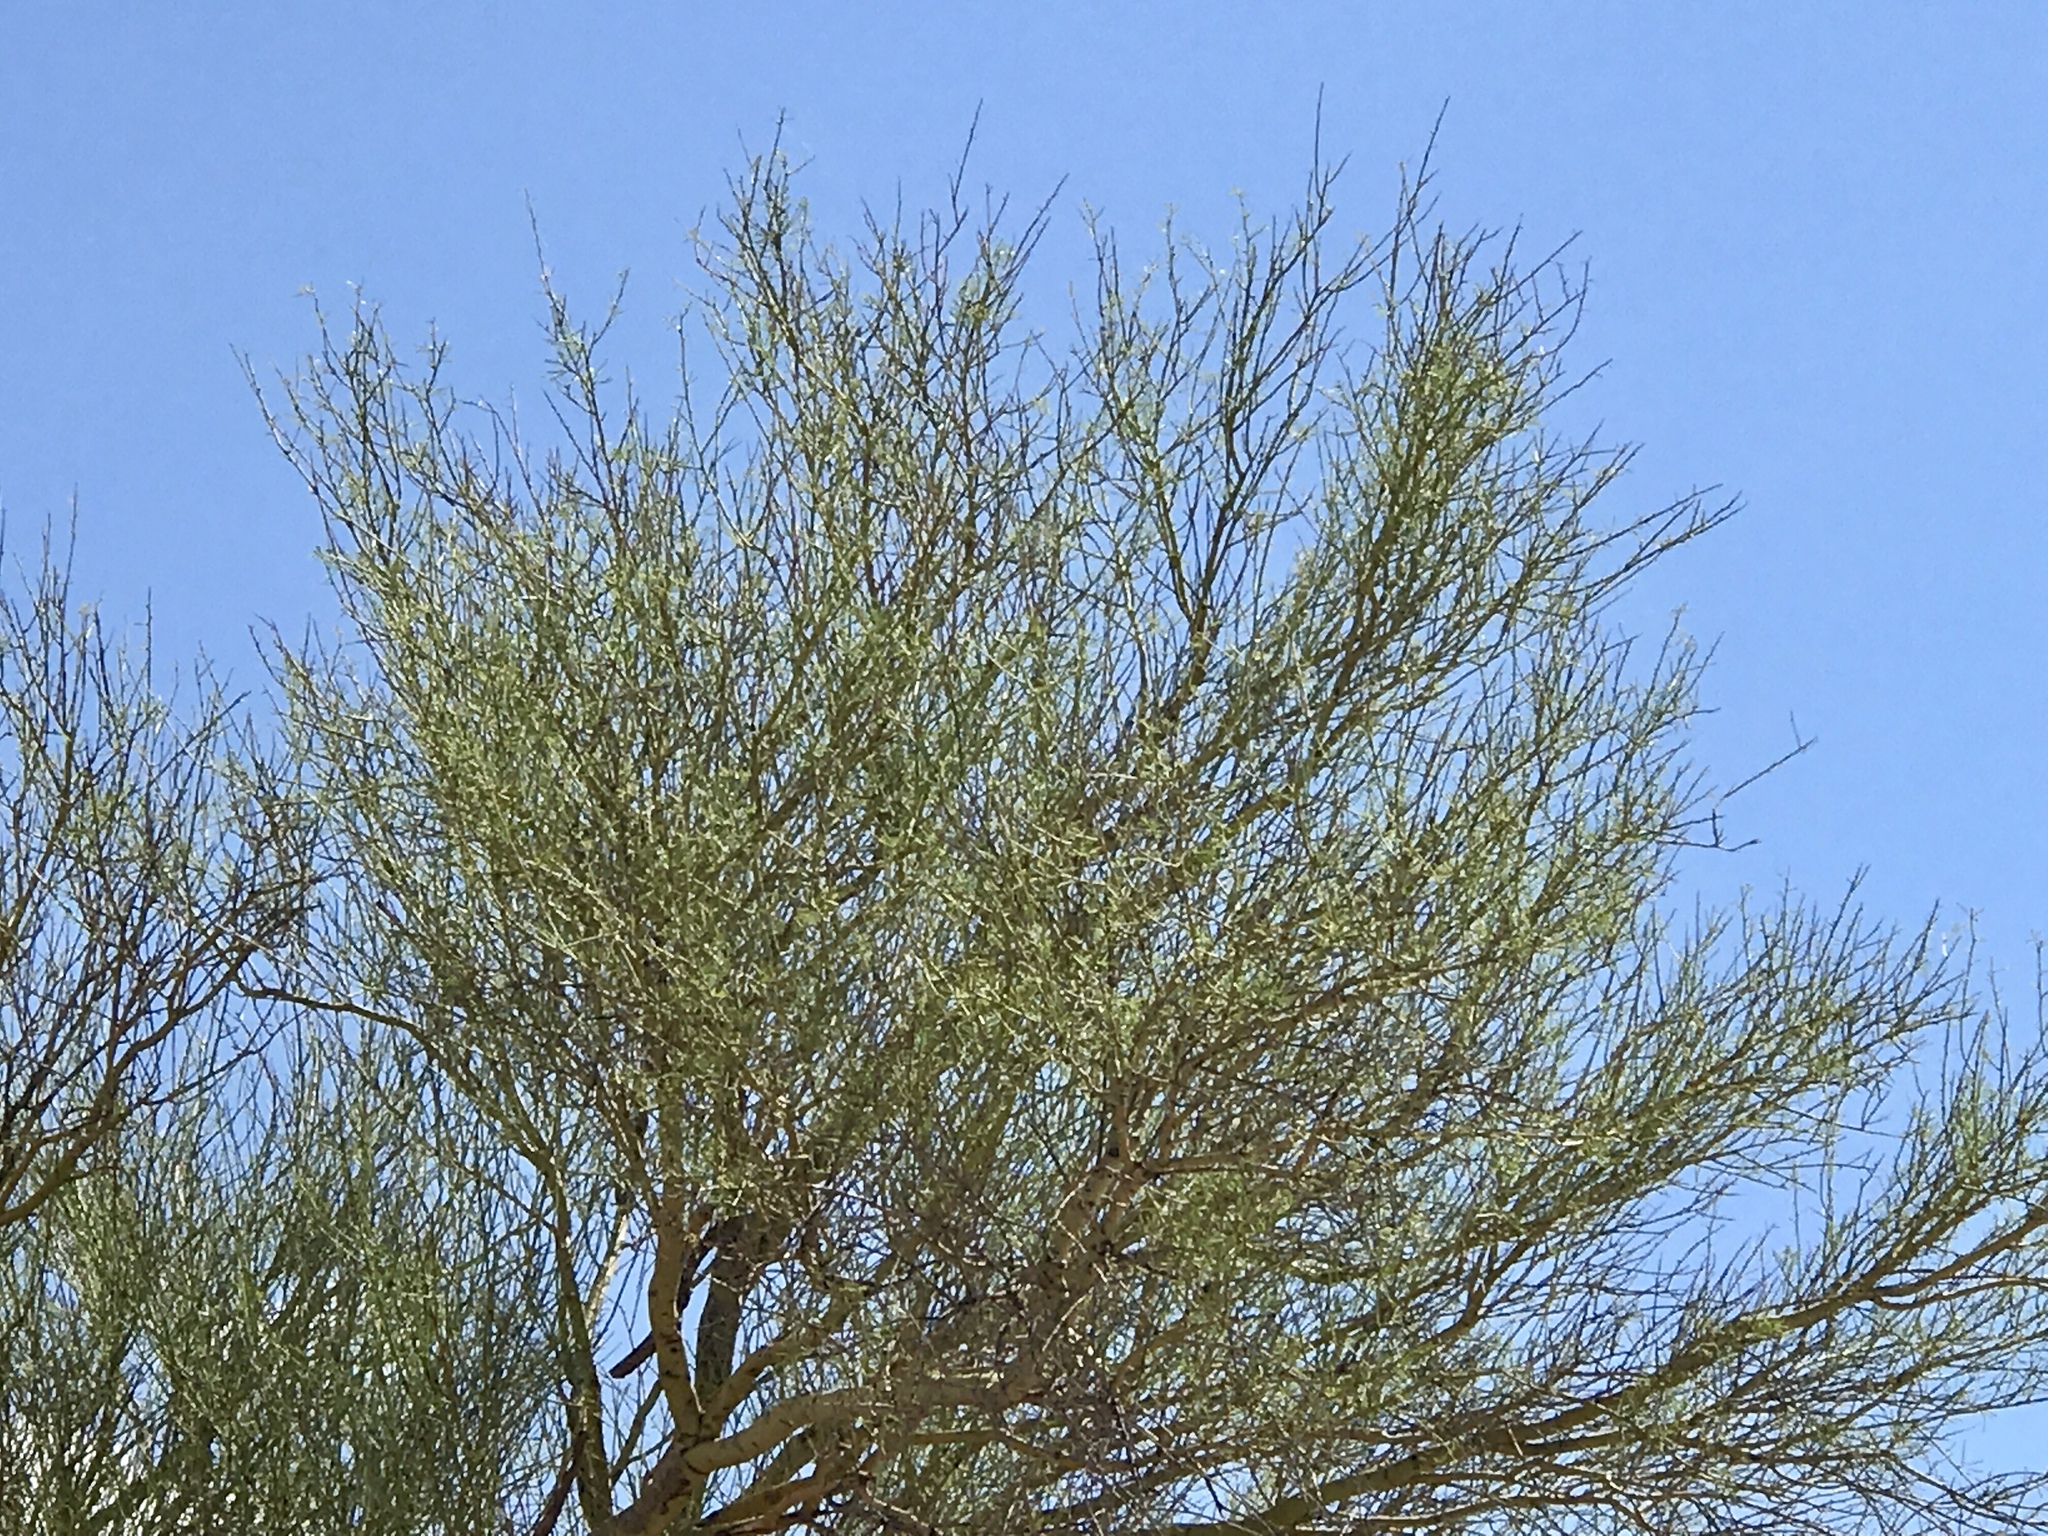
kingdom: Plantae
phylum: Tracheophyta
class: Magnoliopsida
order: Fabales
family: Fabaceae
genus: Parkinsonia
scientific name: Parkinsonia microphylla
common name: Yellow paloverde
